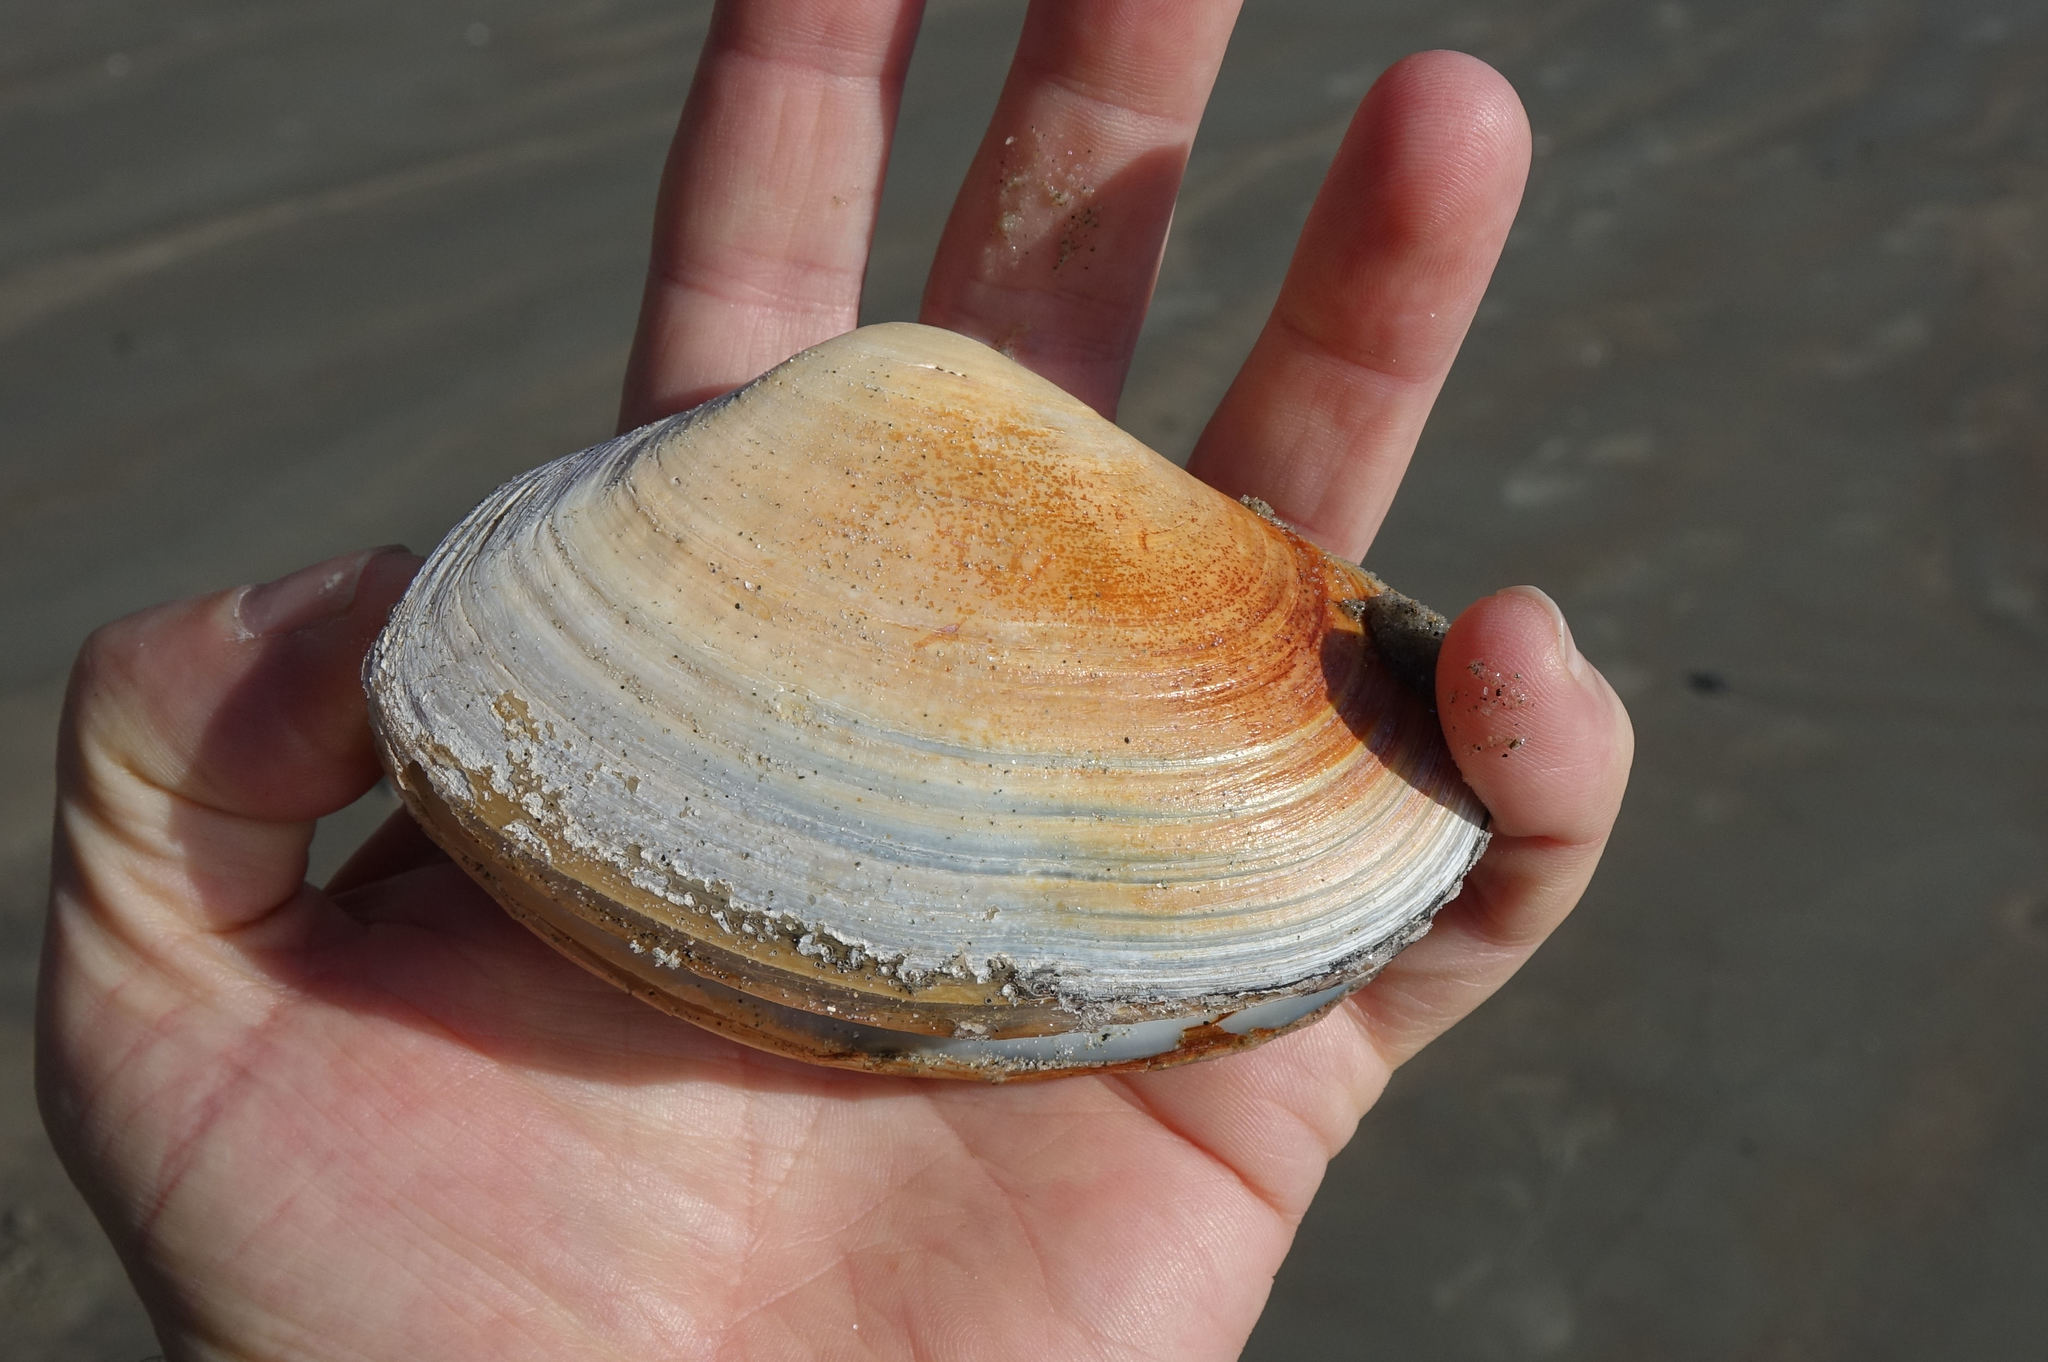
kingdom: Animalia
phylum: Mollusca
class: Bivalvia
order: Venerida
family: Mesodesmatidae
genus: Paphies
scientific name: Paphies donacina
